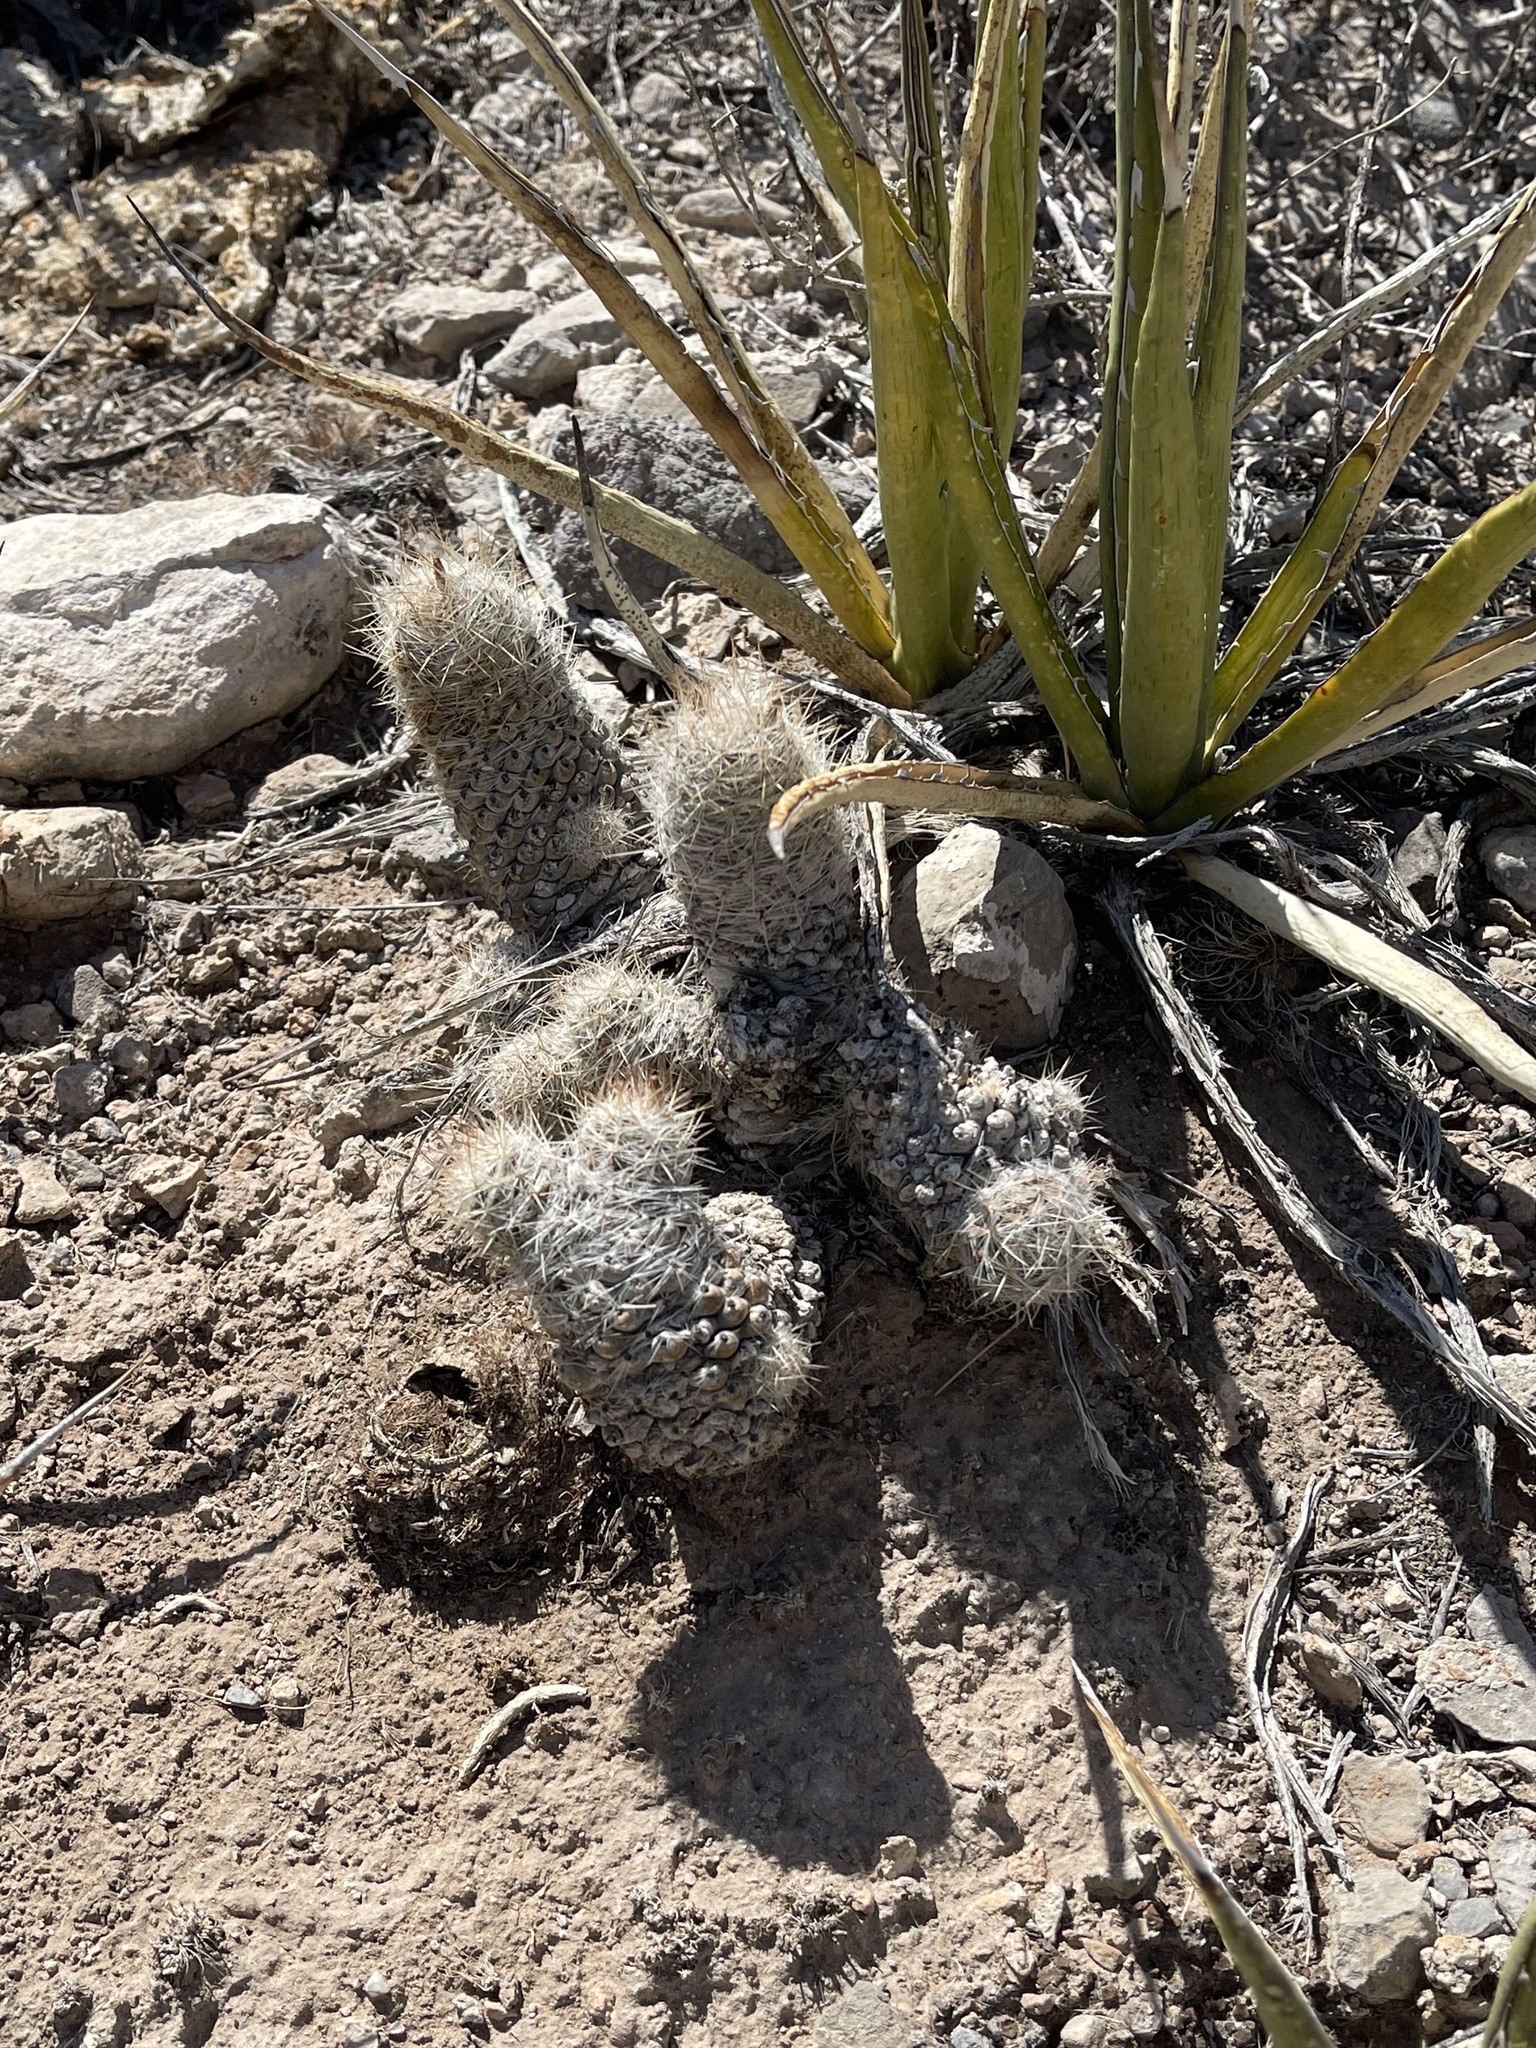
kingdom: Plantae
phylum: Tracheophyta
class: Magnoliopsida
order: Caryophyllales
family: Cactaceae
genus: Pelecyphora
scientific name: Pelecyphora tuberculosa
